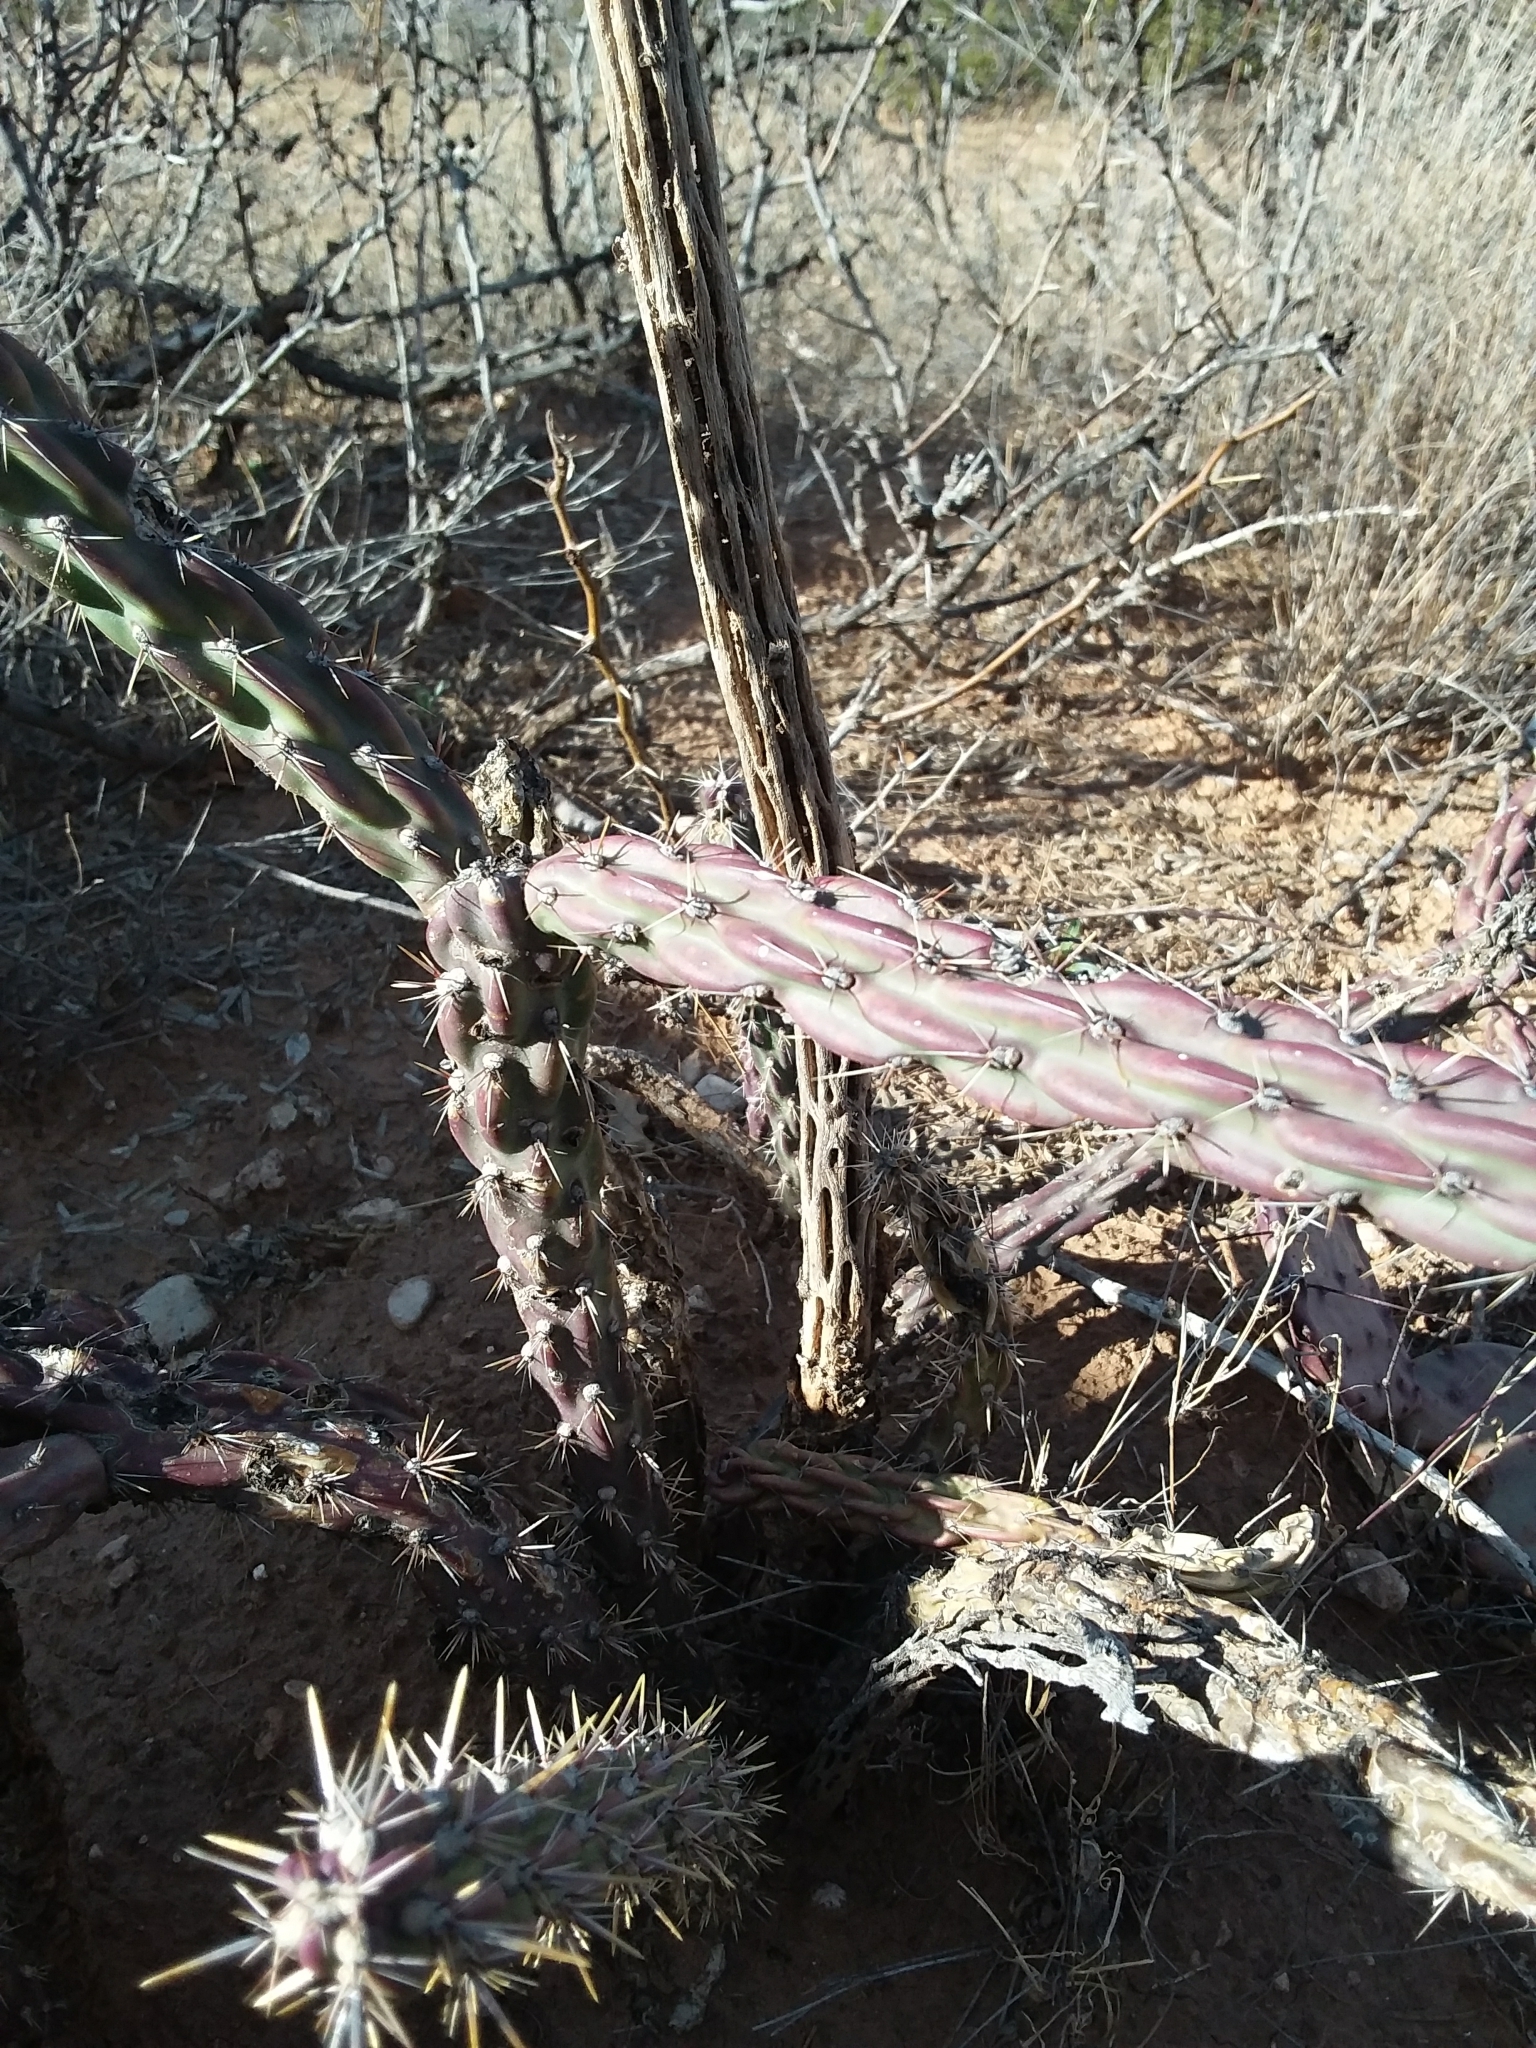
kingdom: Plantae
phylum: Tracheophyta
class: Magnoliopsida
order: Caryophyllales
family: Cactaceae
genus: Cylindropuntia
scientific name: Cylindropuntia imbricata
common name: Candelabrum cactus
